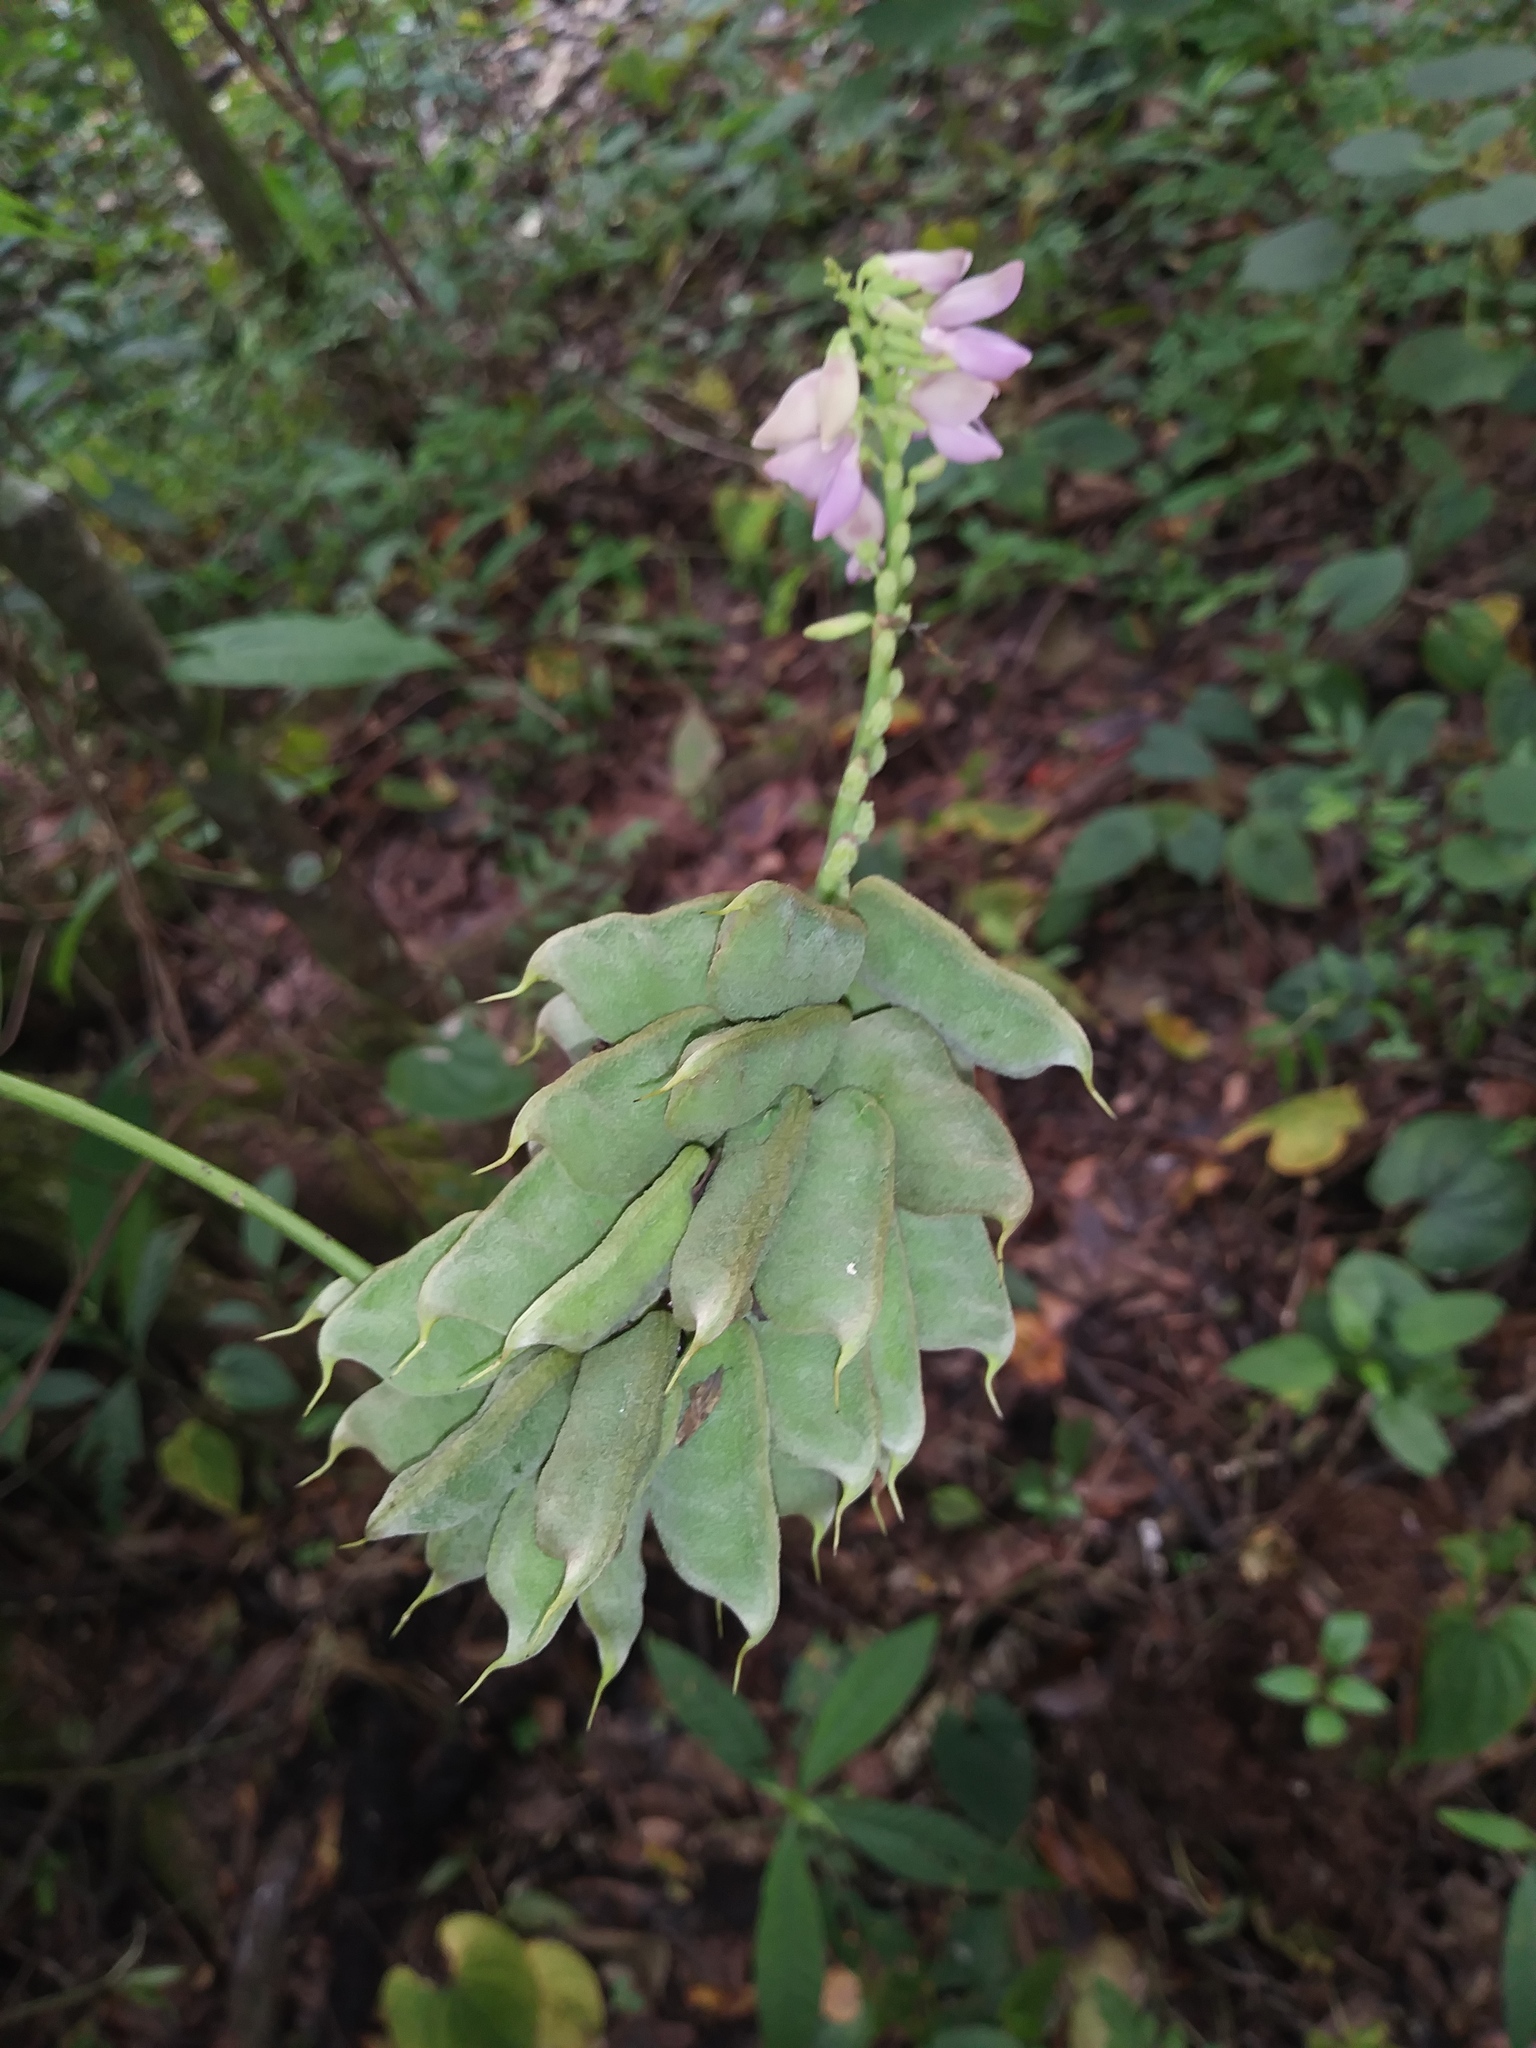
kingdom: Plantae
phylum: Tracheophyta
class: Magnoliopsida
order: Fabales
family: Fabaceae
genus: Abrus
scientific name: Abrus precatorius
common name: Rosarypea
